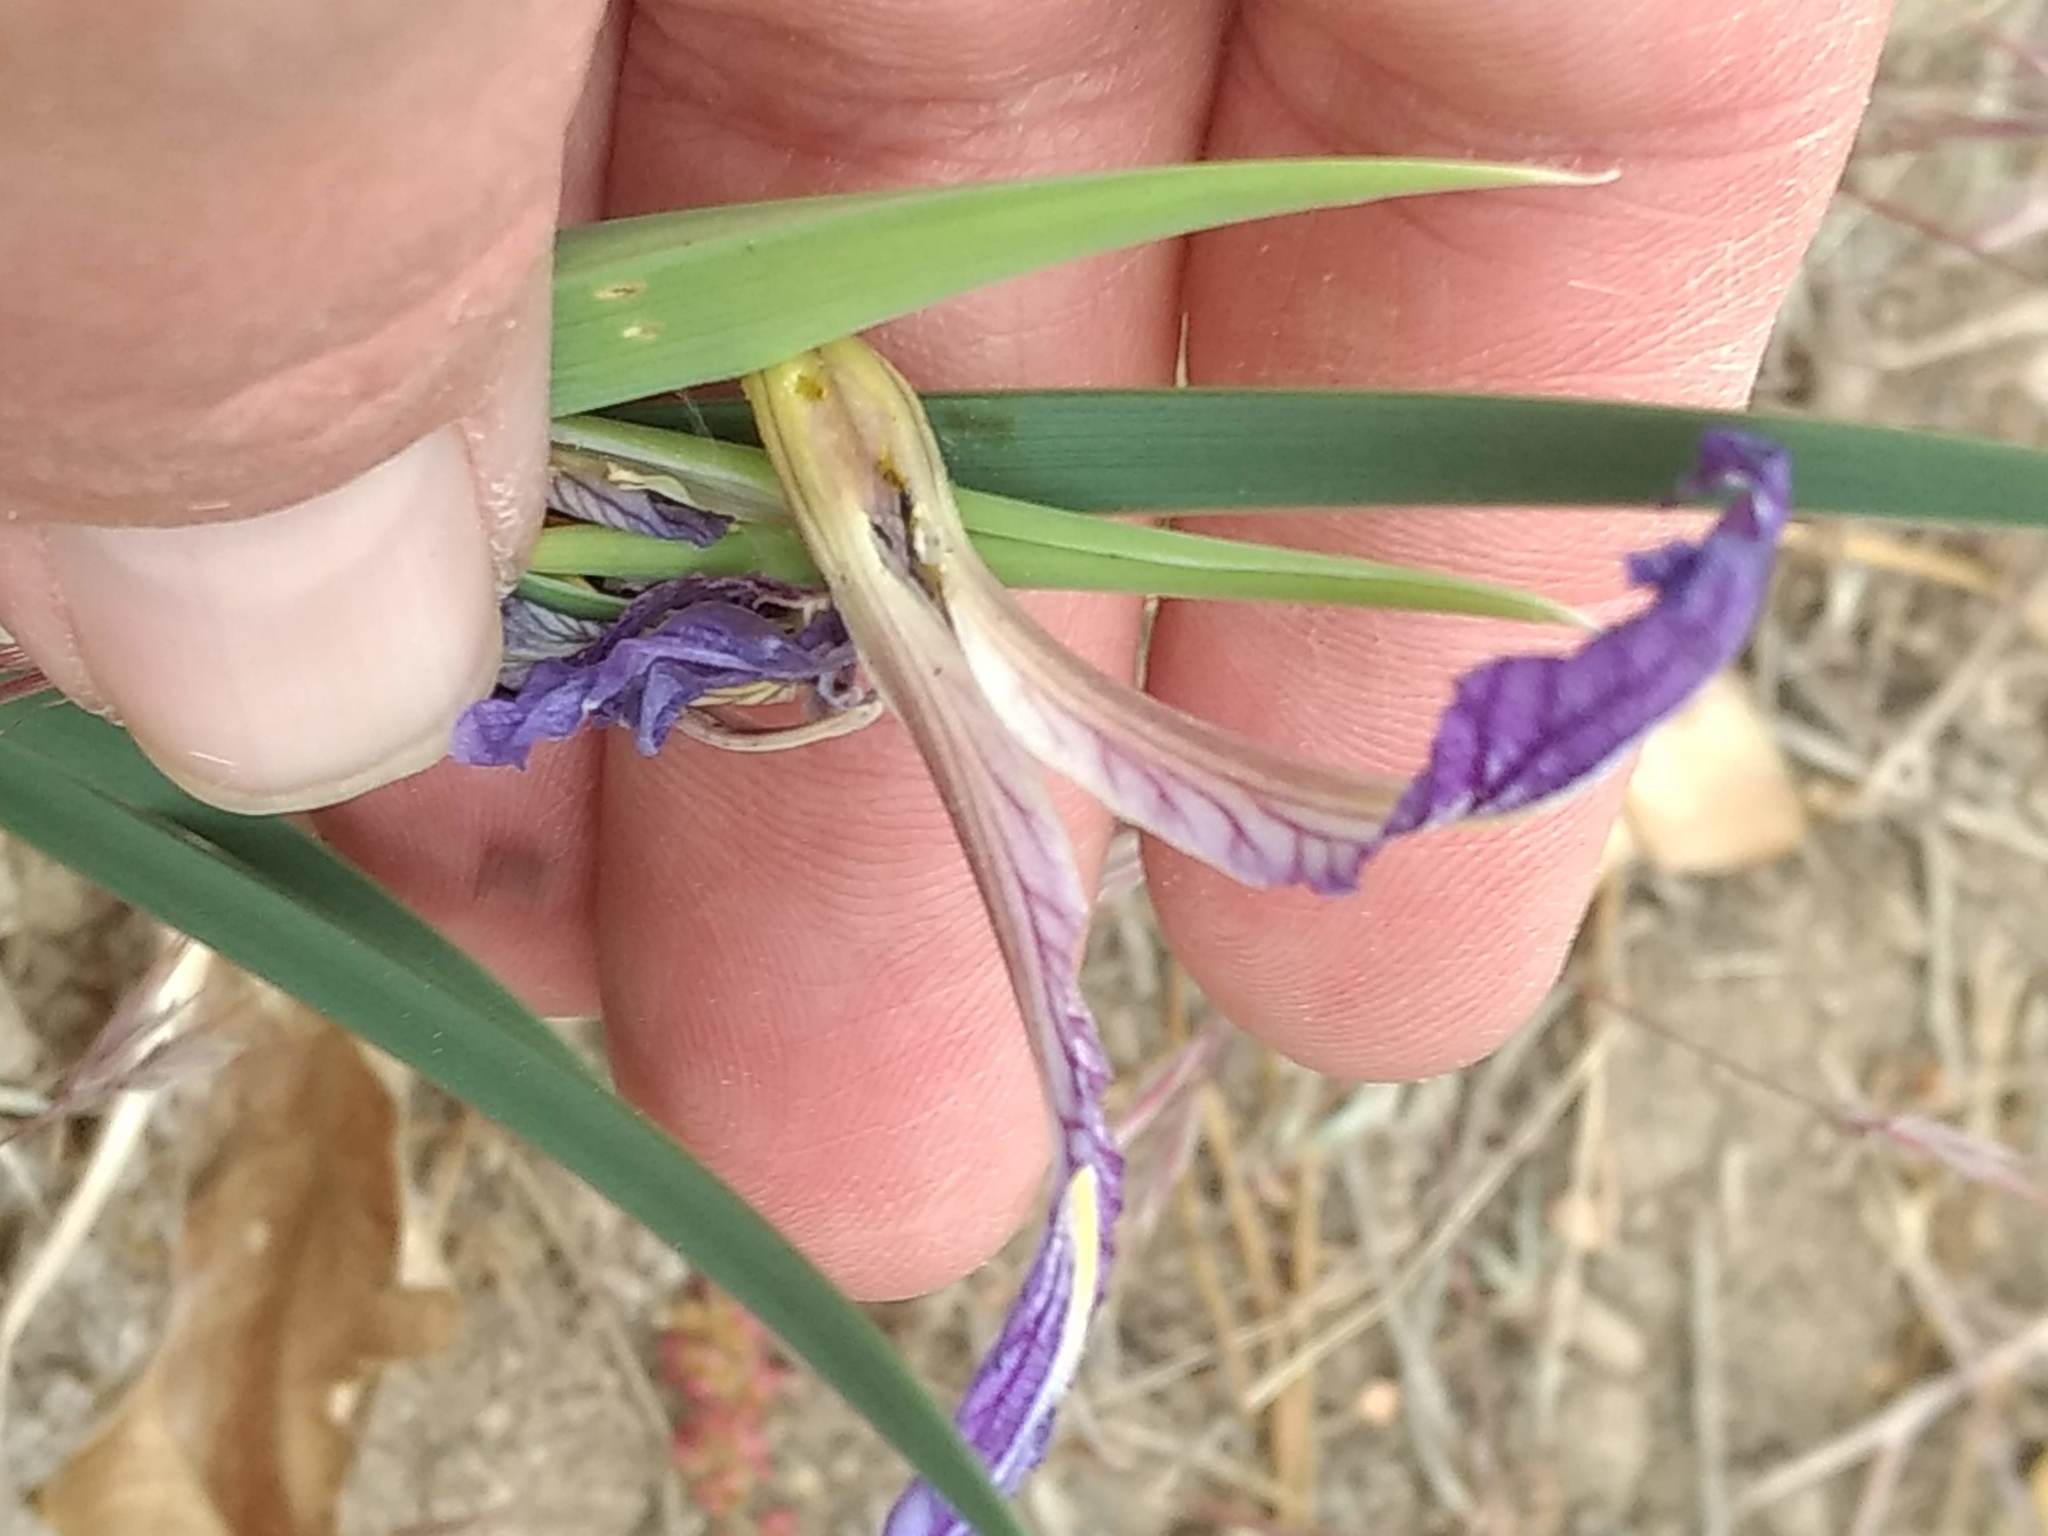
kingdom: Plantae
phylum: Tracheophyta
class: Liliopsida
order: Asparagales
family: Iridaceae
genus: Iris
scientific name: Iris hartwegii
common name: Sierra iris
